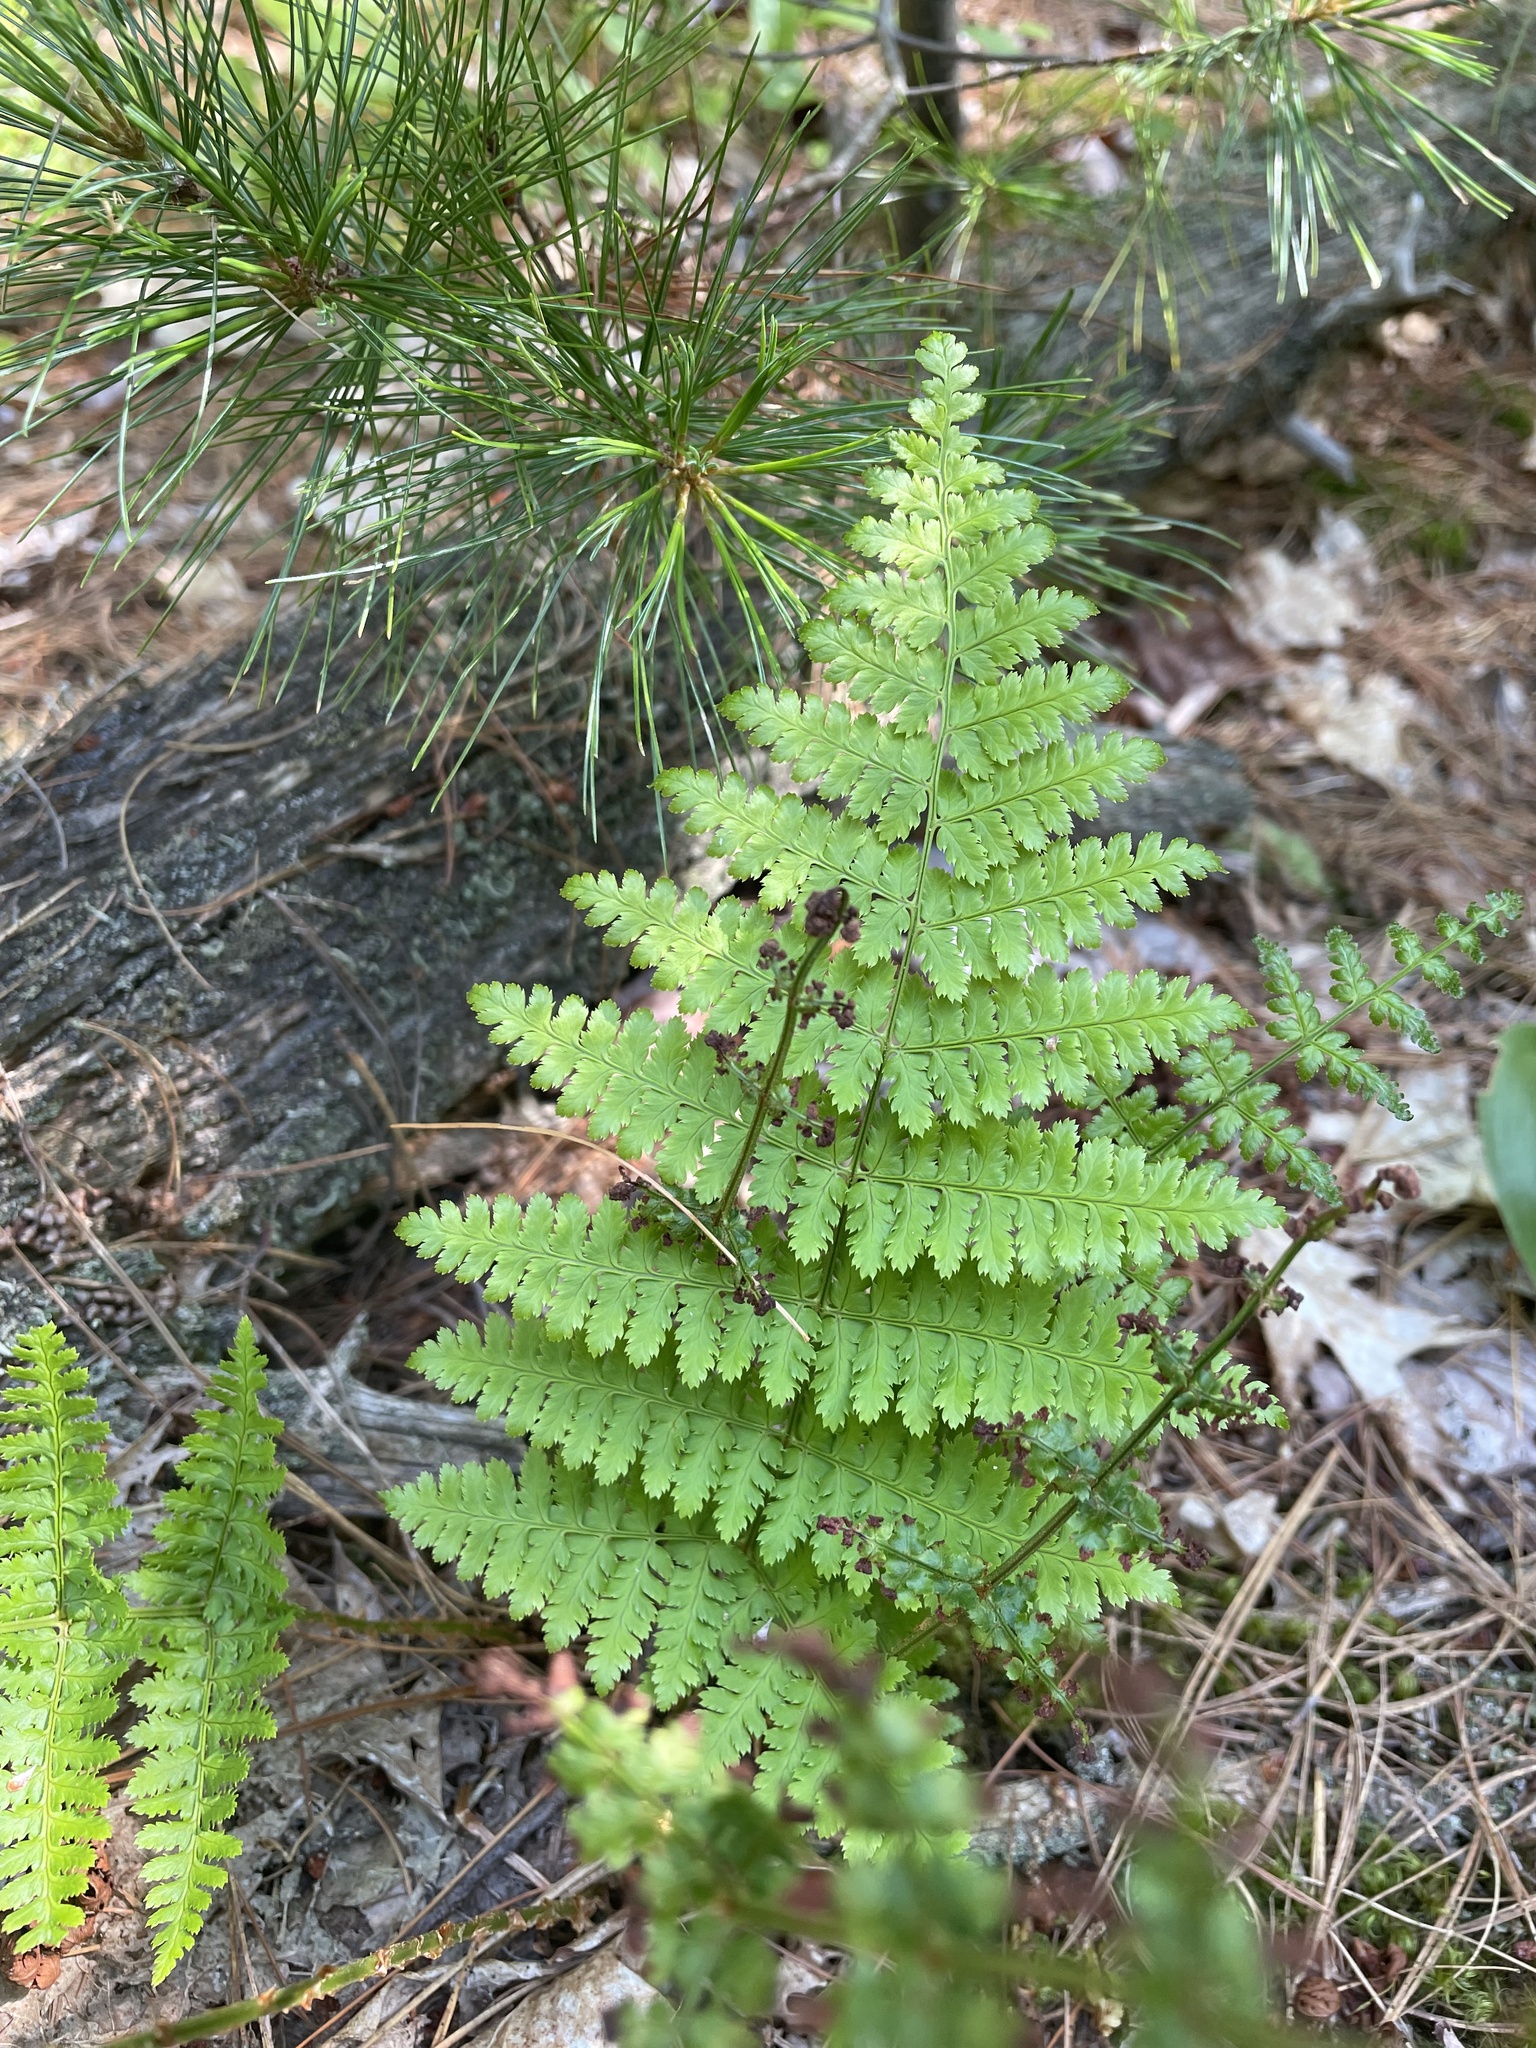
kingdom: Plantae
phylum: Tracheophyta
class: Polypodiopsida
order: Polypodiales
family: Dryopteridaceae
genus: Dryopteris
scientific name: Dryopteris intermedia
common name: Evergreen wood fern
